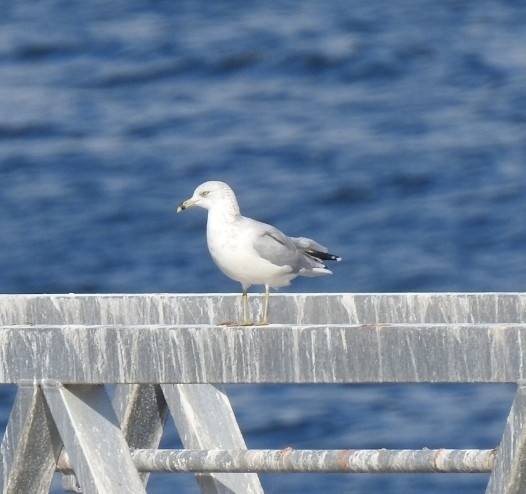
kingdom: Animalia
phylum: Chordata
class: Aves
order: Charadriiformes
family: Laridae
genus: Larus
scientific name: Larus delawarensis
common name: Ring-billed gull
